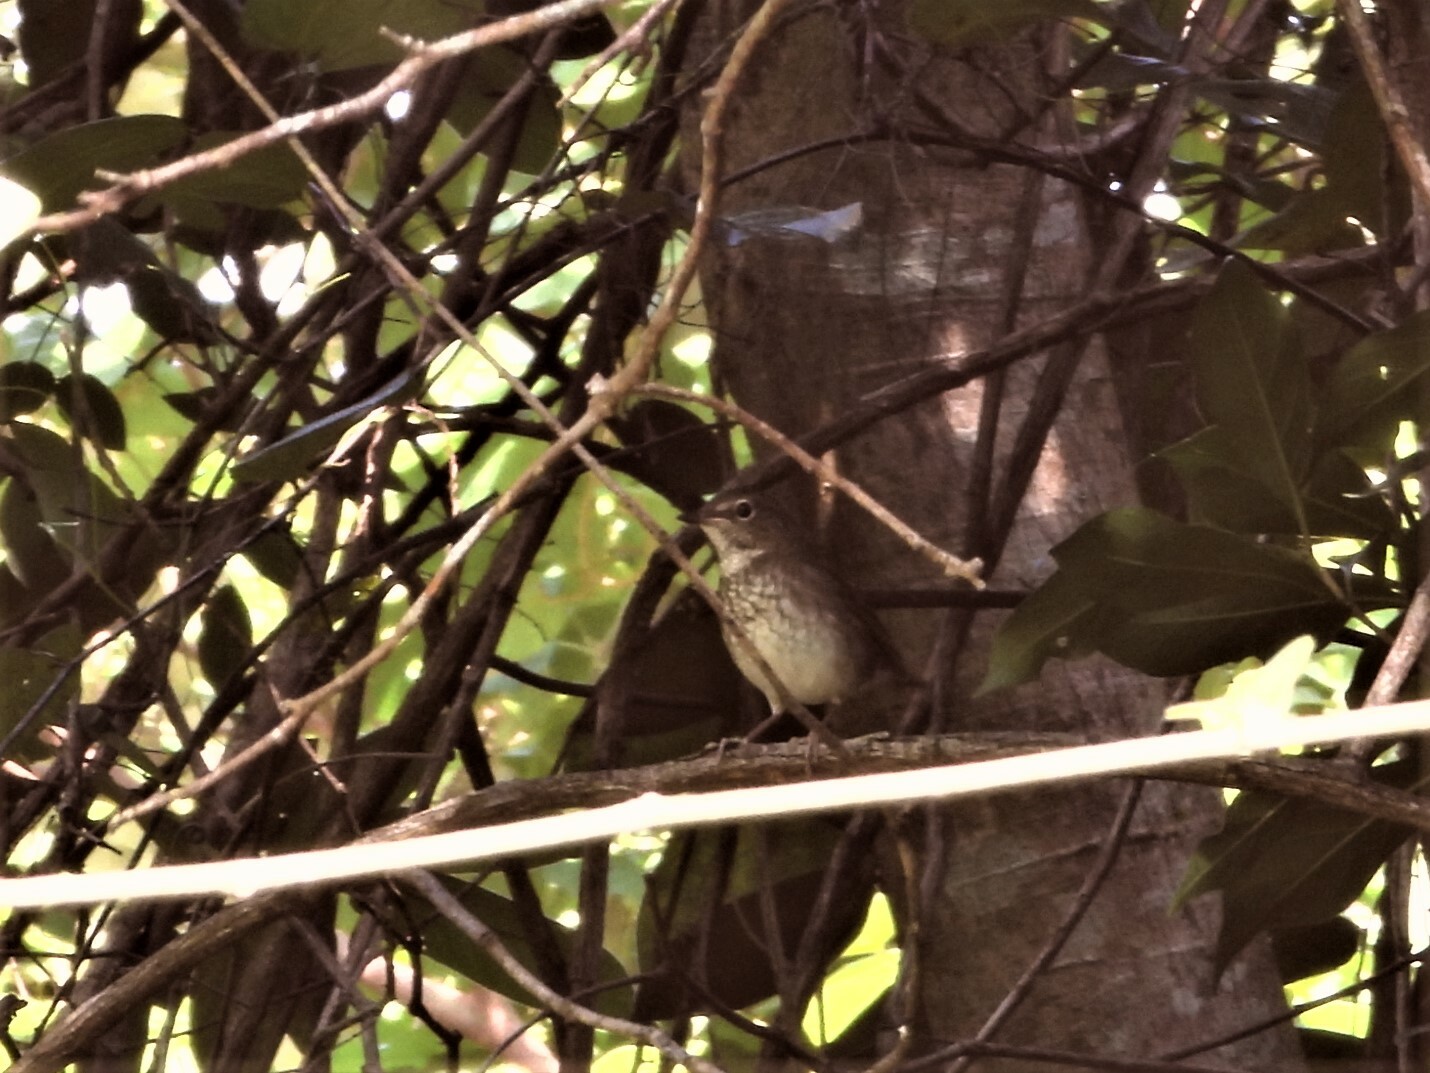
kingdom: Animalia
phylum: Chordata
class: Aves
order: Passeriformes
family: Muscicapidae
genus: Larvivora
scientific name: Larvivora sibilans
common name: Rufous-tailed robin
